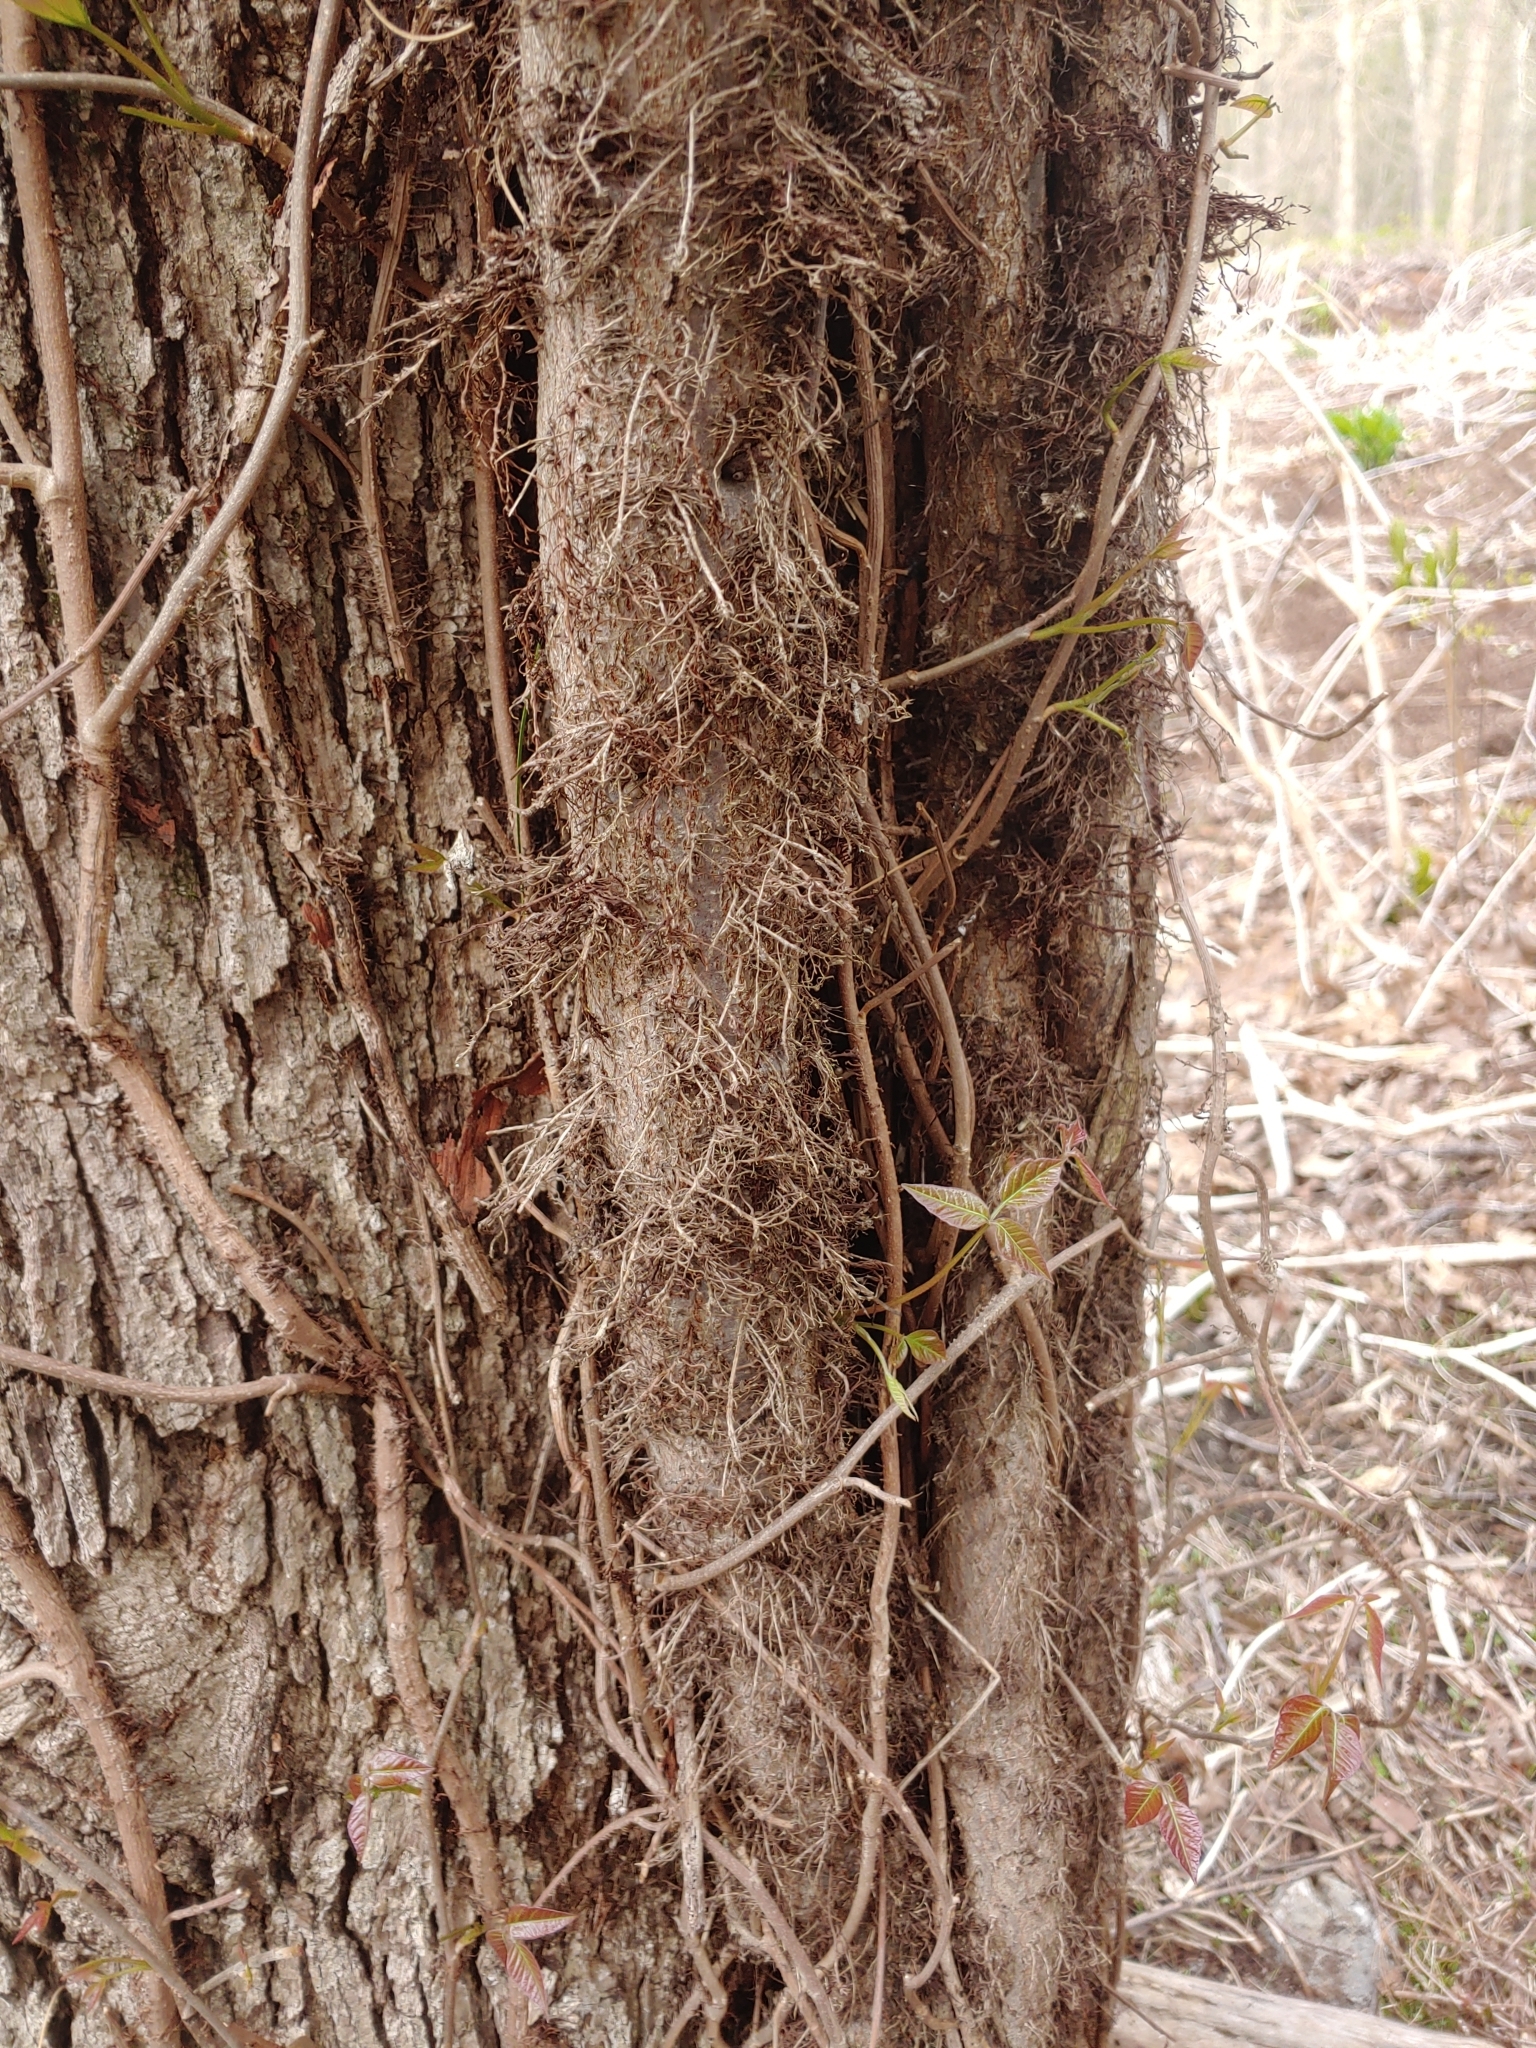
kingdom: Plantae
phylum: Tracheophyta
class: Magnoliopsida
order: Sapindales
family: Anacardiaceae
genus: Toxicodendron
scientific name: Toxicodendron radicans
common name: Poison ivy
